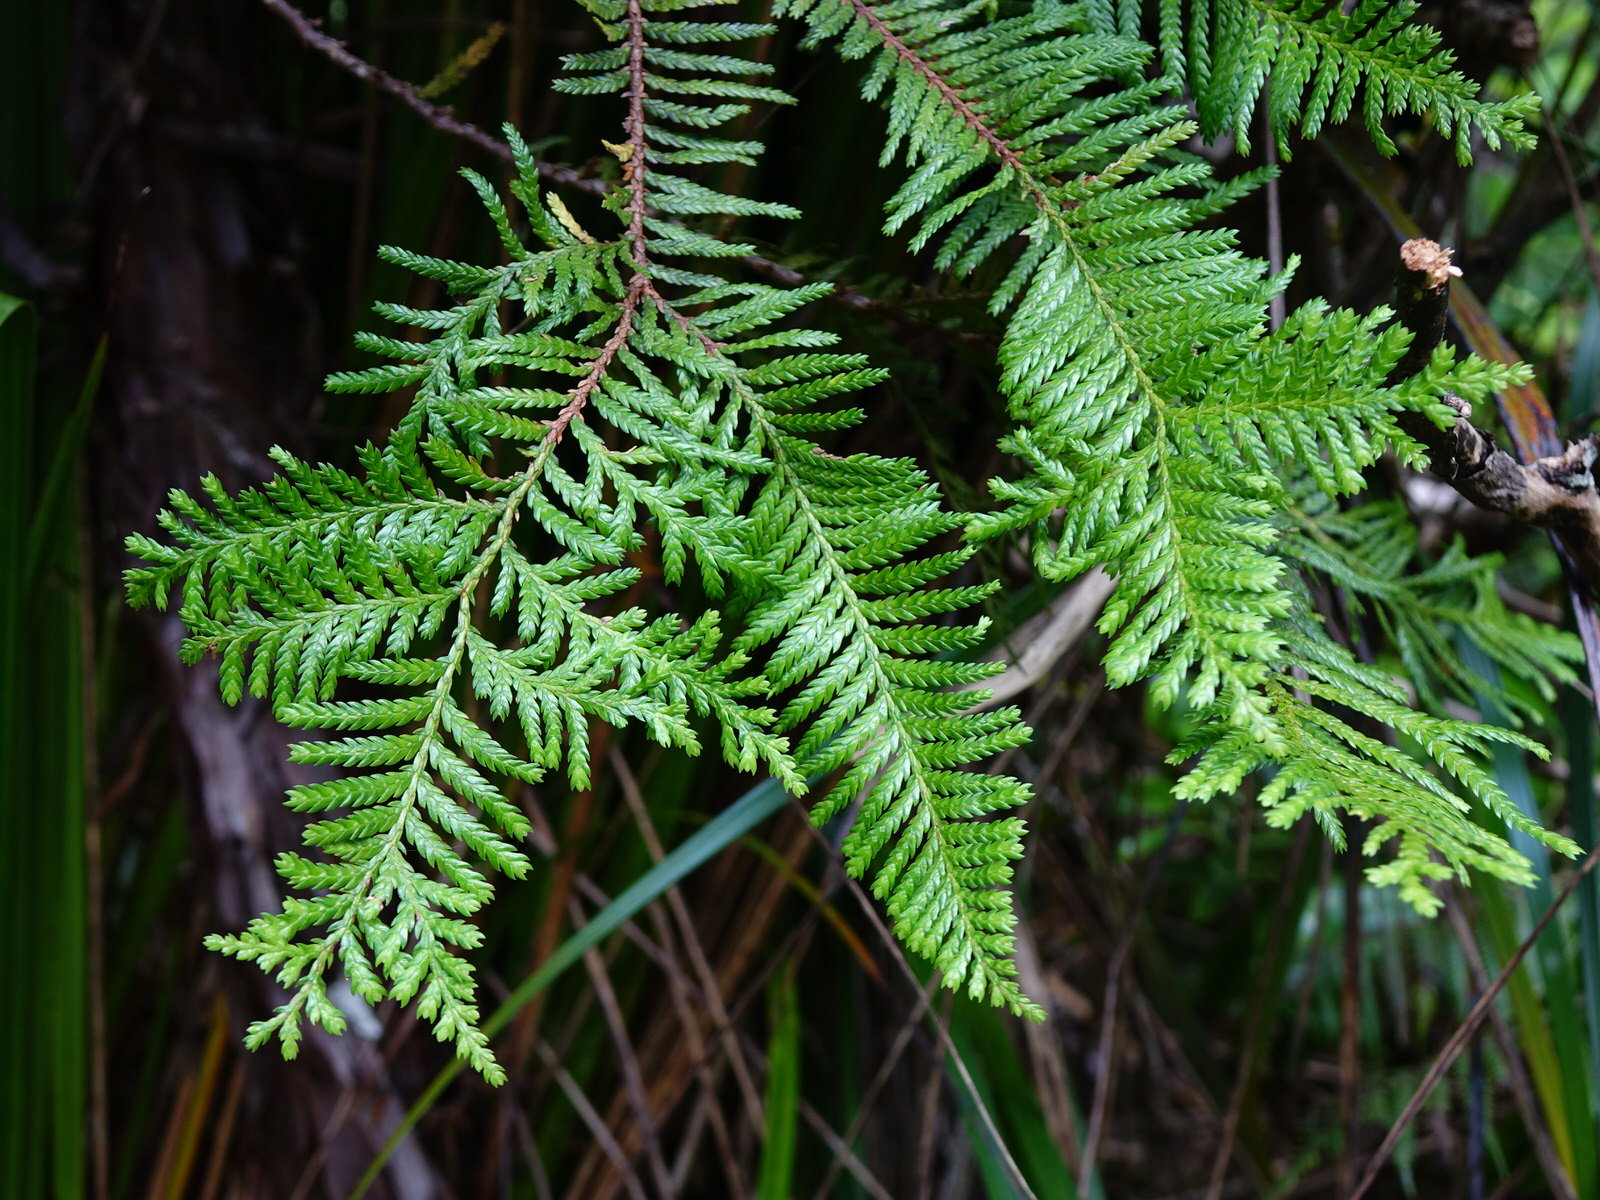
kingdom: Plantae
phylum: Tracheophyta
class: Pinopsida
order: Pinales
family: Cupressaceae
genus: Libocedrus
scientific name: Libocedrus plumosa
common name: New zealand cedar
